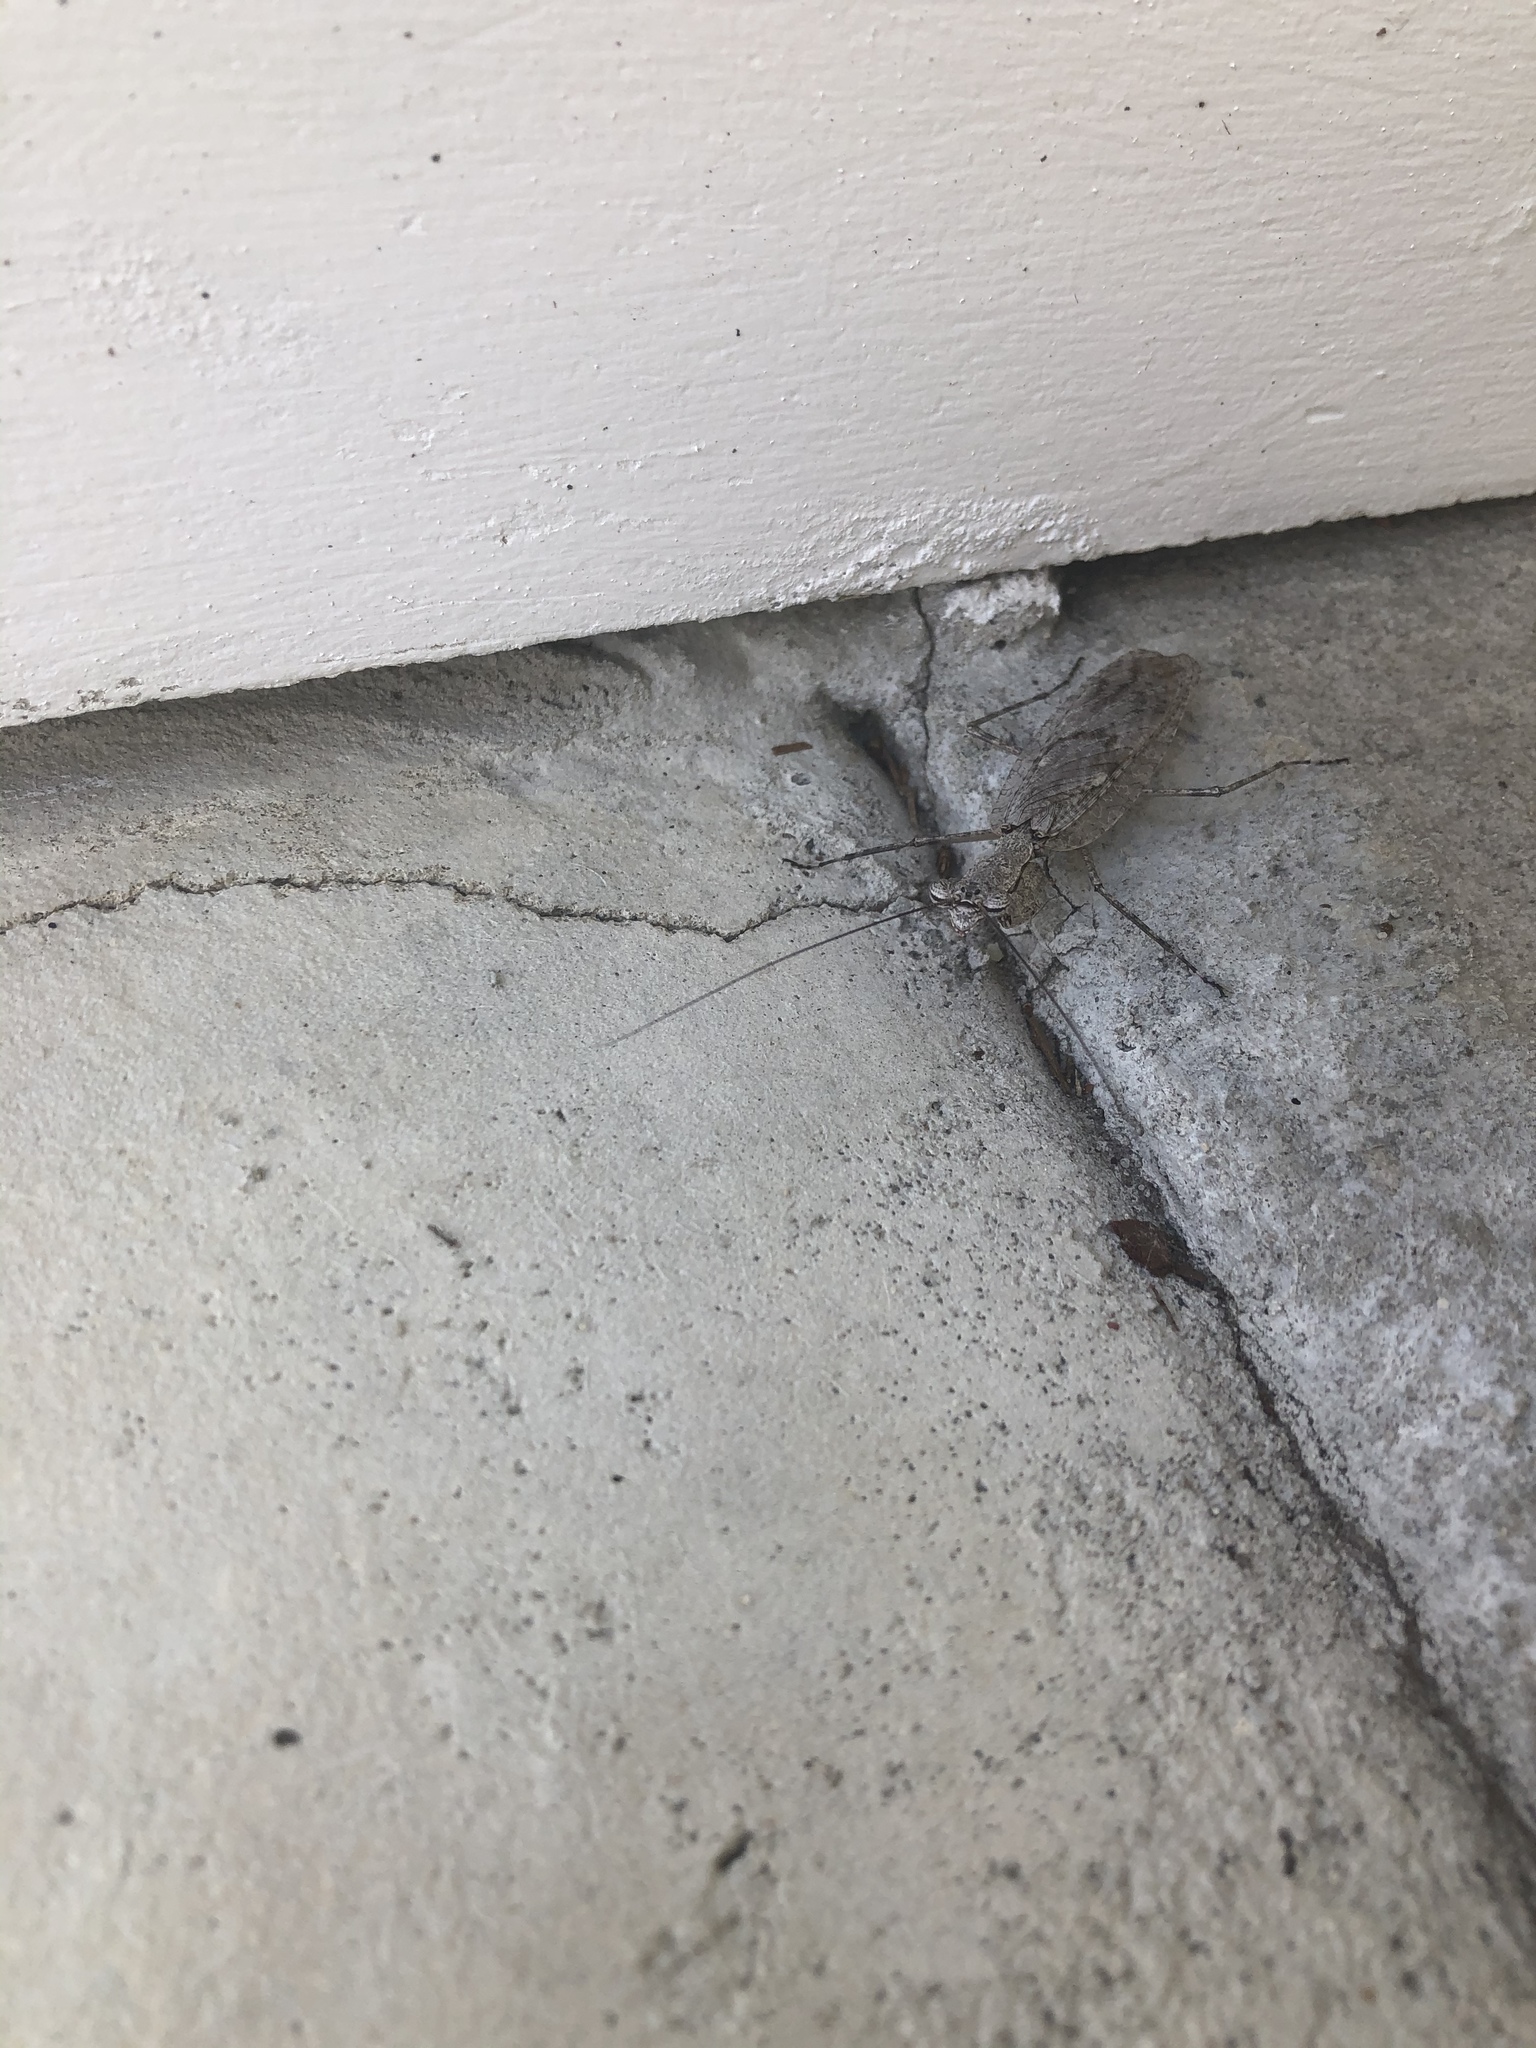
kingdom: Animalia
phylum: Arthropoda
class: Insecta
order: Mantodea
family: Epaphroditidae
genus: Gonatista
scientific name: Gonatista grisea
